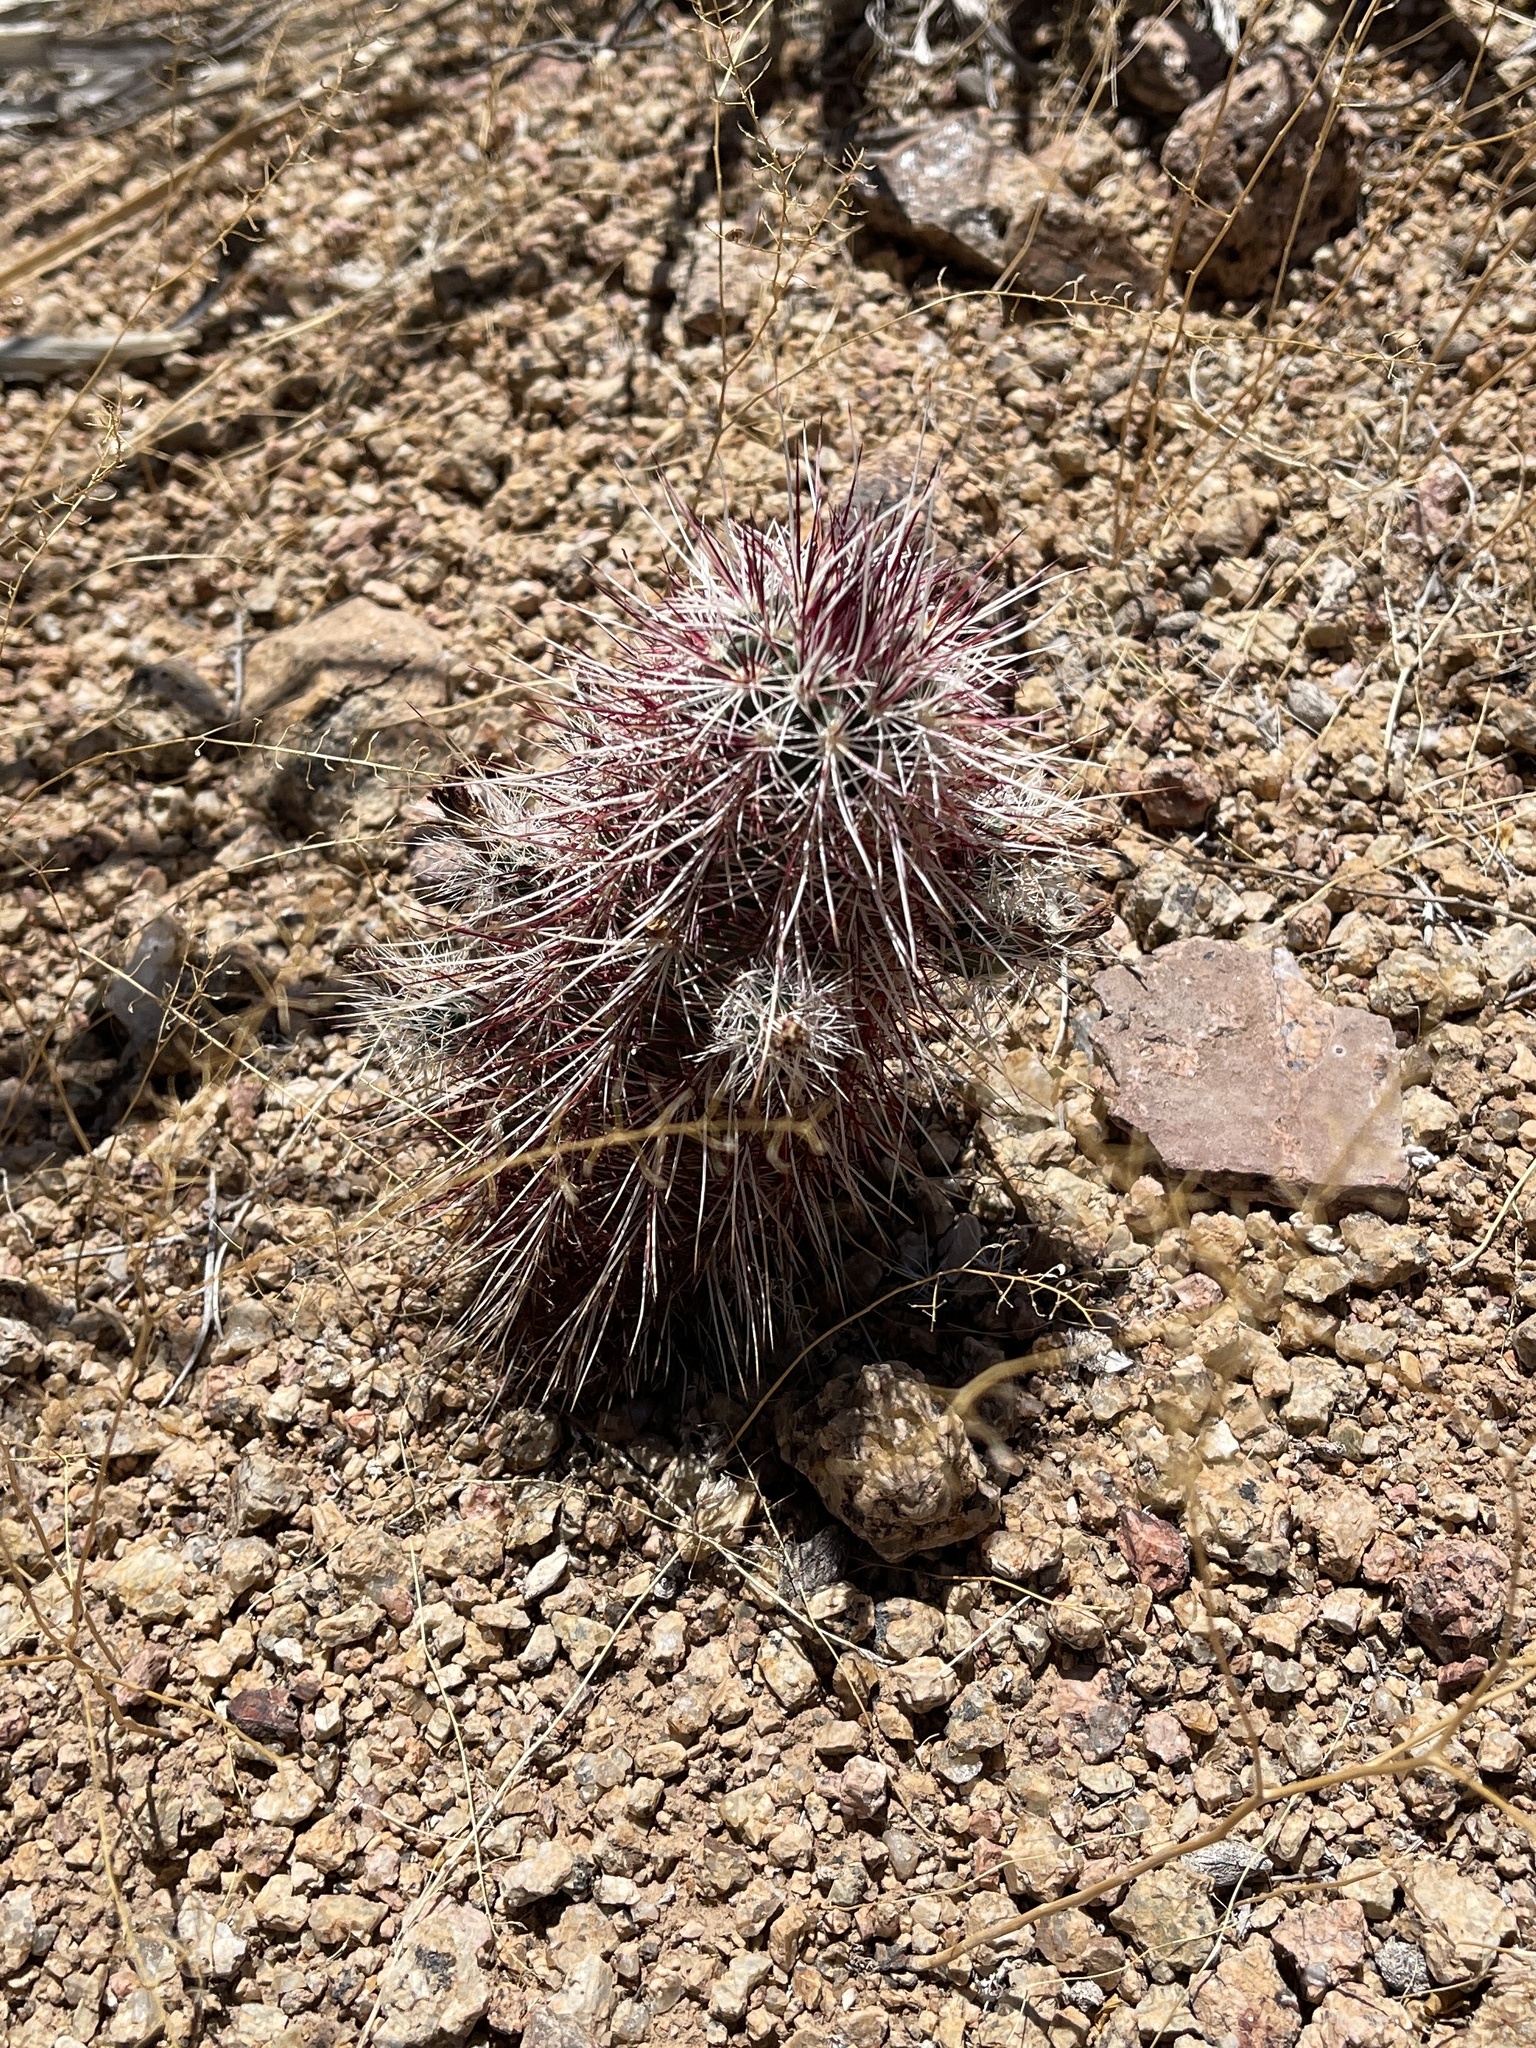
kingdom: Plantae
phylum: Tracheophyta
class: Magnoliopsida
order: Caryophyllales
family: Cactaceae
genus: Echinocereus
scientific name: Echinocereus viridiflorus
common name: Nylon hedgehog cactus
